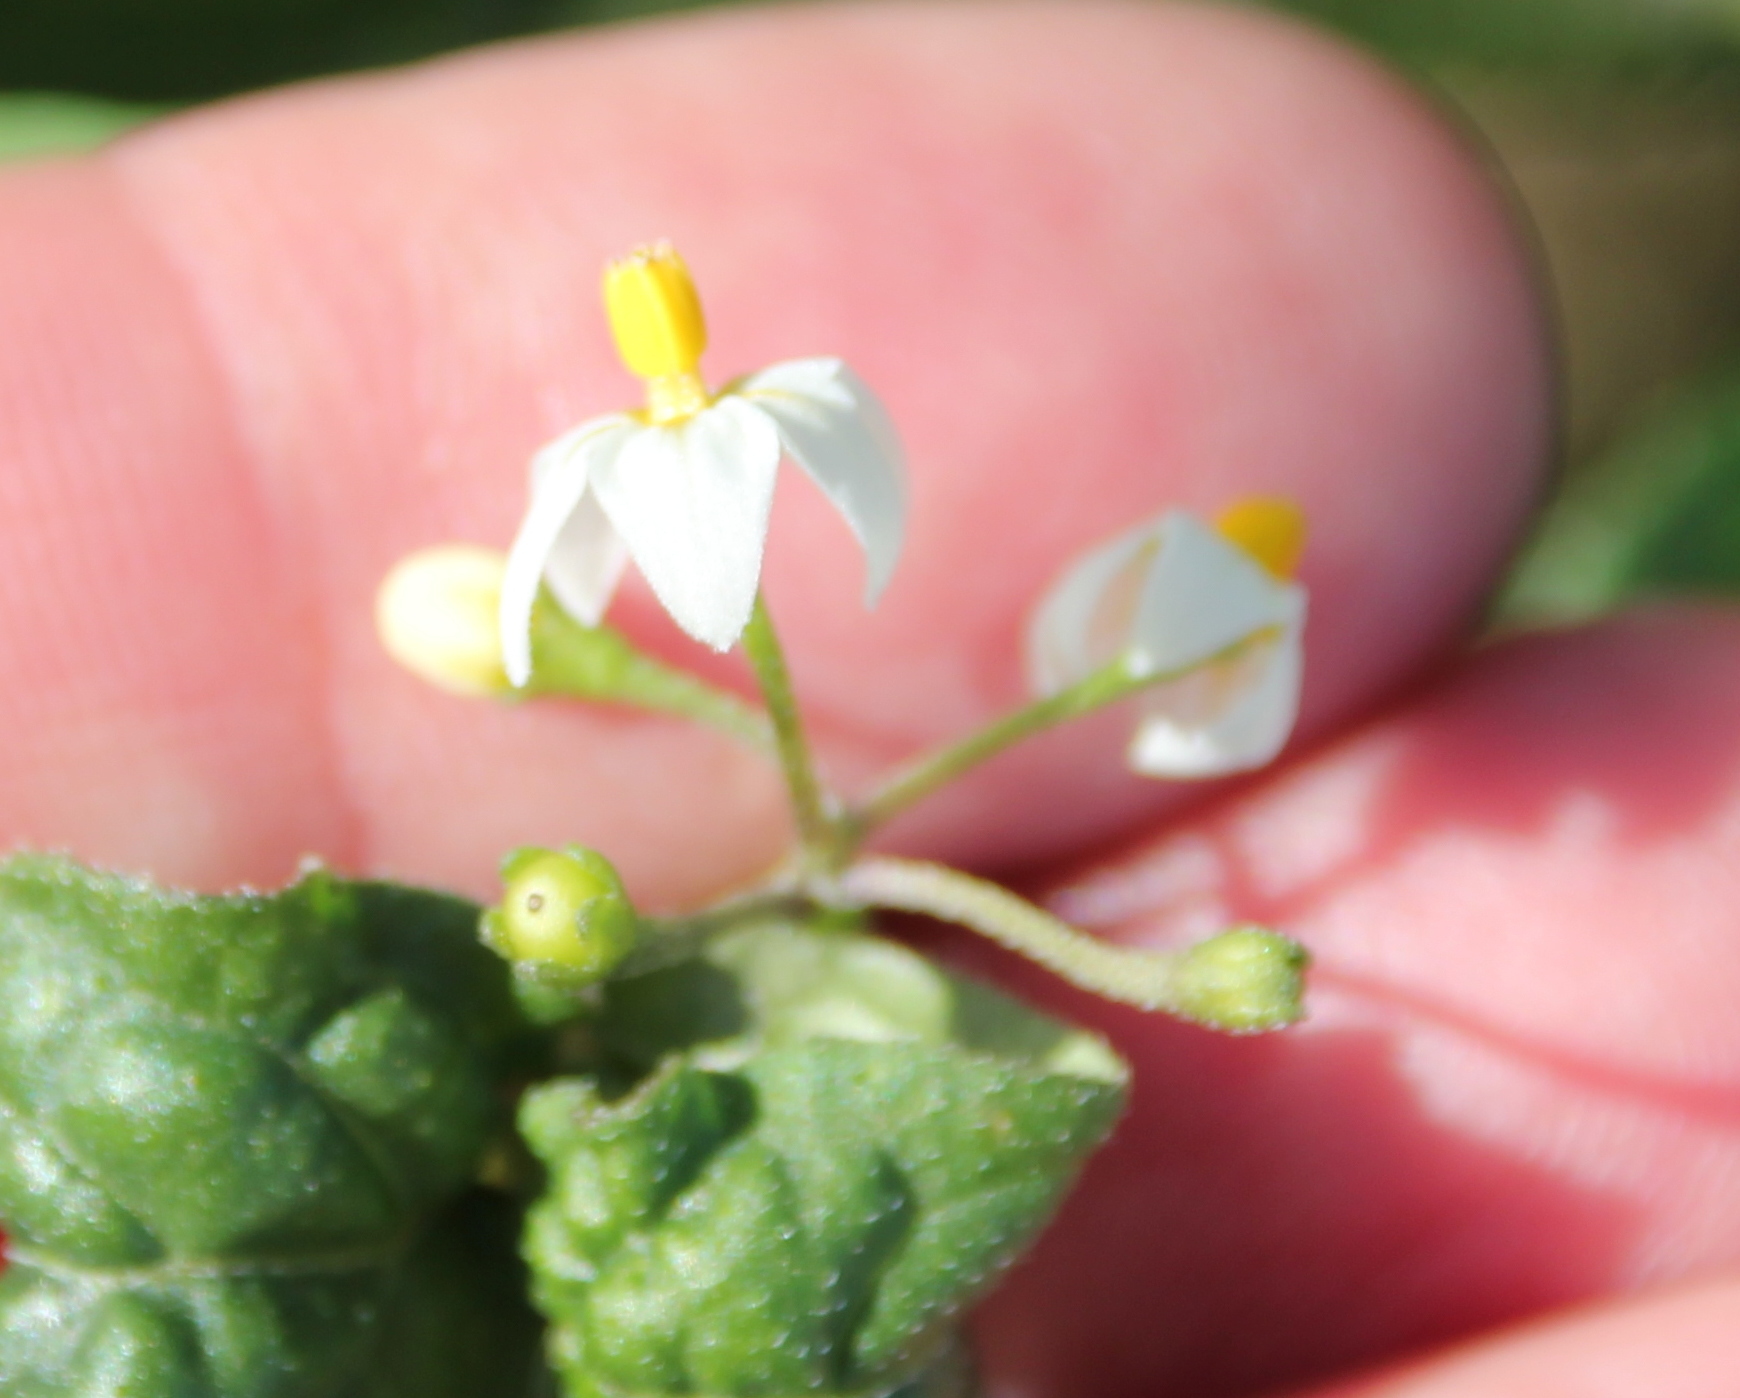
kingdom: Plantae
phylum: Tracheophyta
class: Magnoliopsida
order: Solanales
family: Solanaceae
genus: Solanum
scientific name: Solanum americanum
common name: American black nightshade
